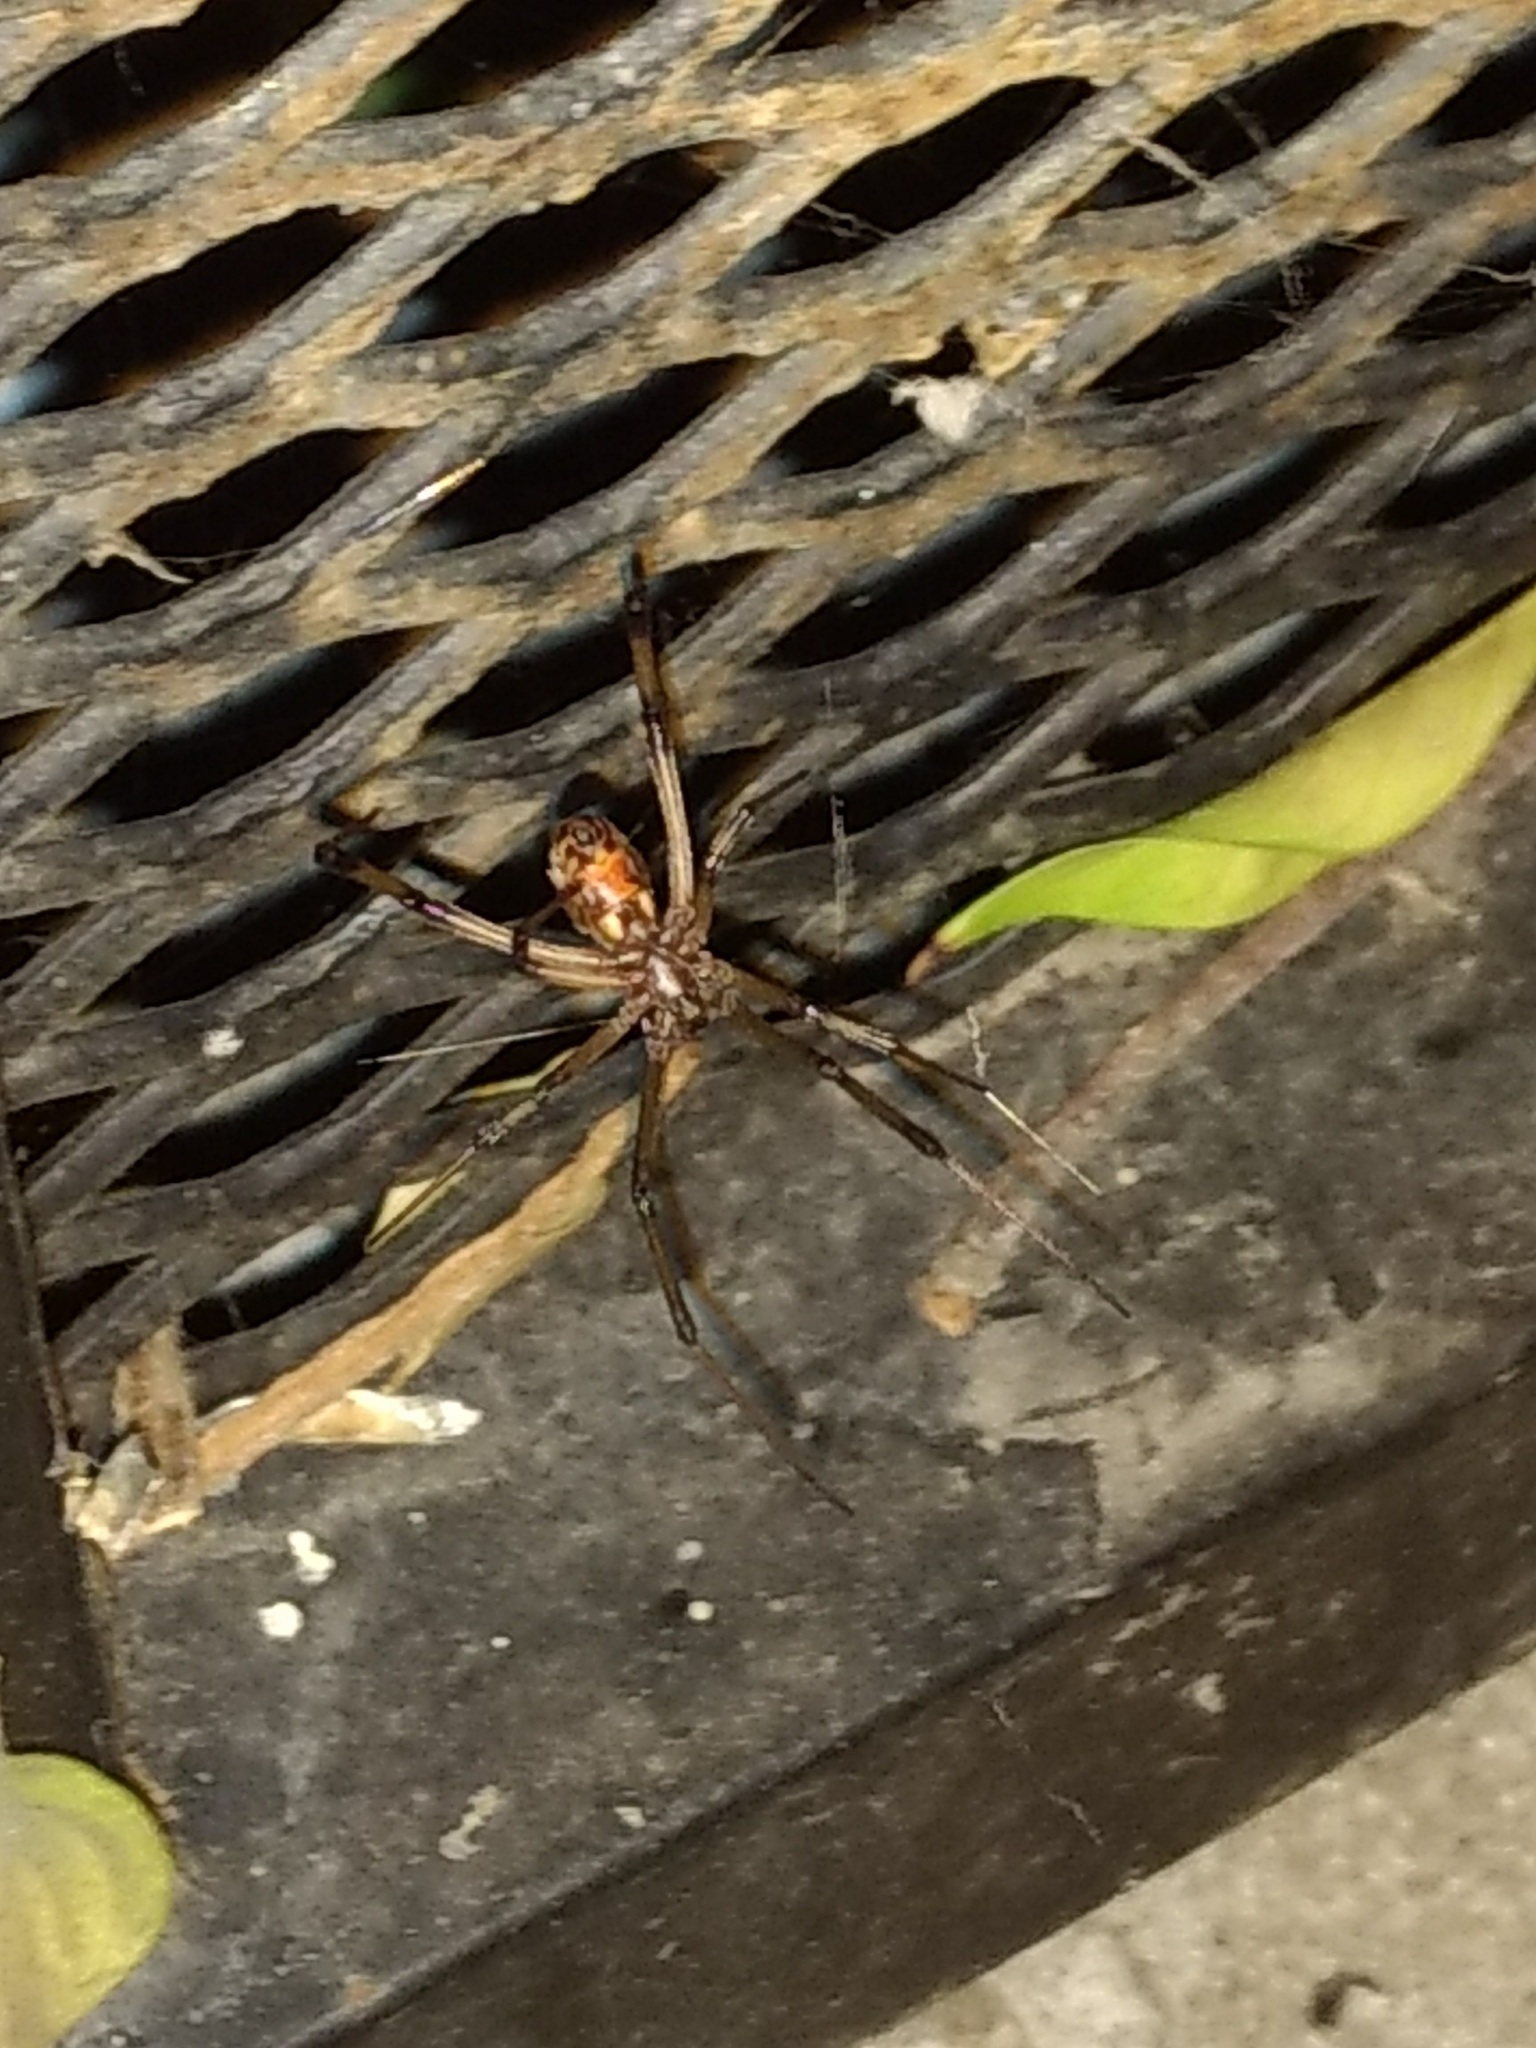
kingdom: Animalia
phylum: Arthropoda
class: Arachnida
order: Araneae
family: Theridiidae
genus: Latrodectus
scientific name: Latrodectus geometricus
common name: Brown widow spider
